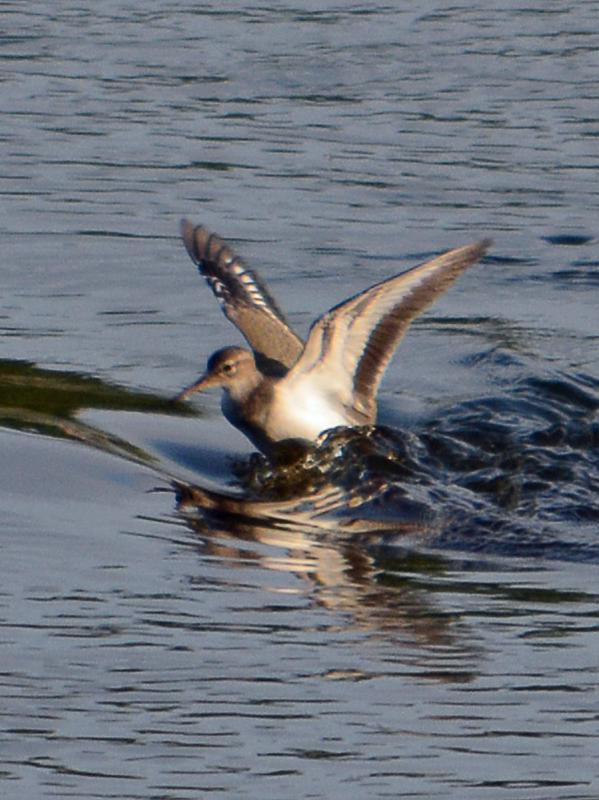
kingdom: Animalia
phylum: Chordata
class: Aves
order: Charadriiformes
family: Scolopacidae
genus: Actitis
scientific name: Actitis macularius
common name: Spotted sandpiper
